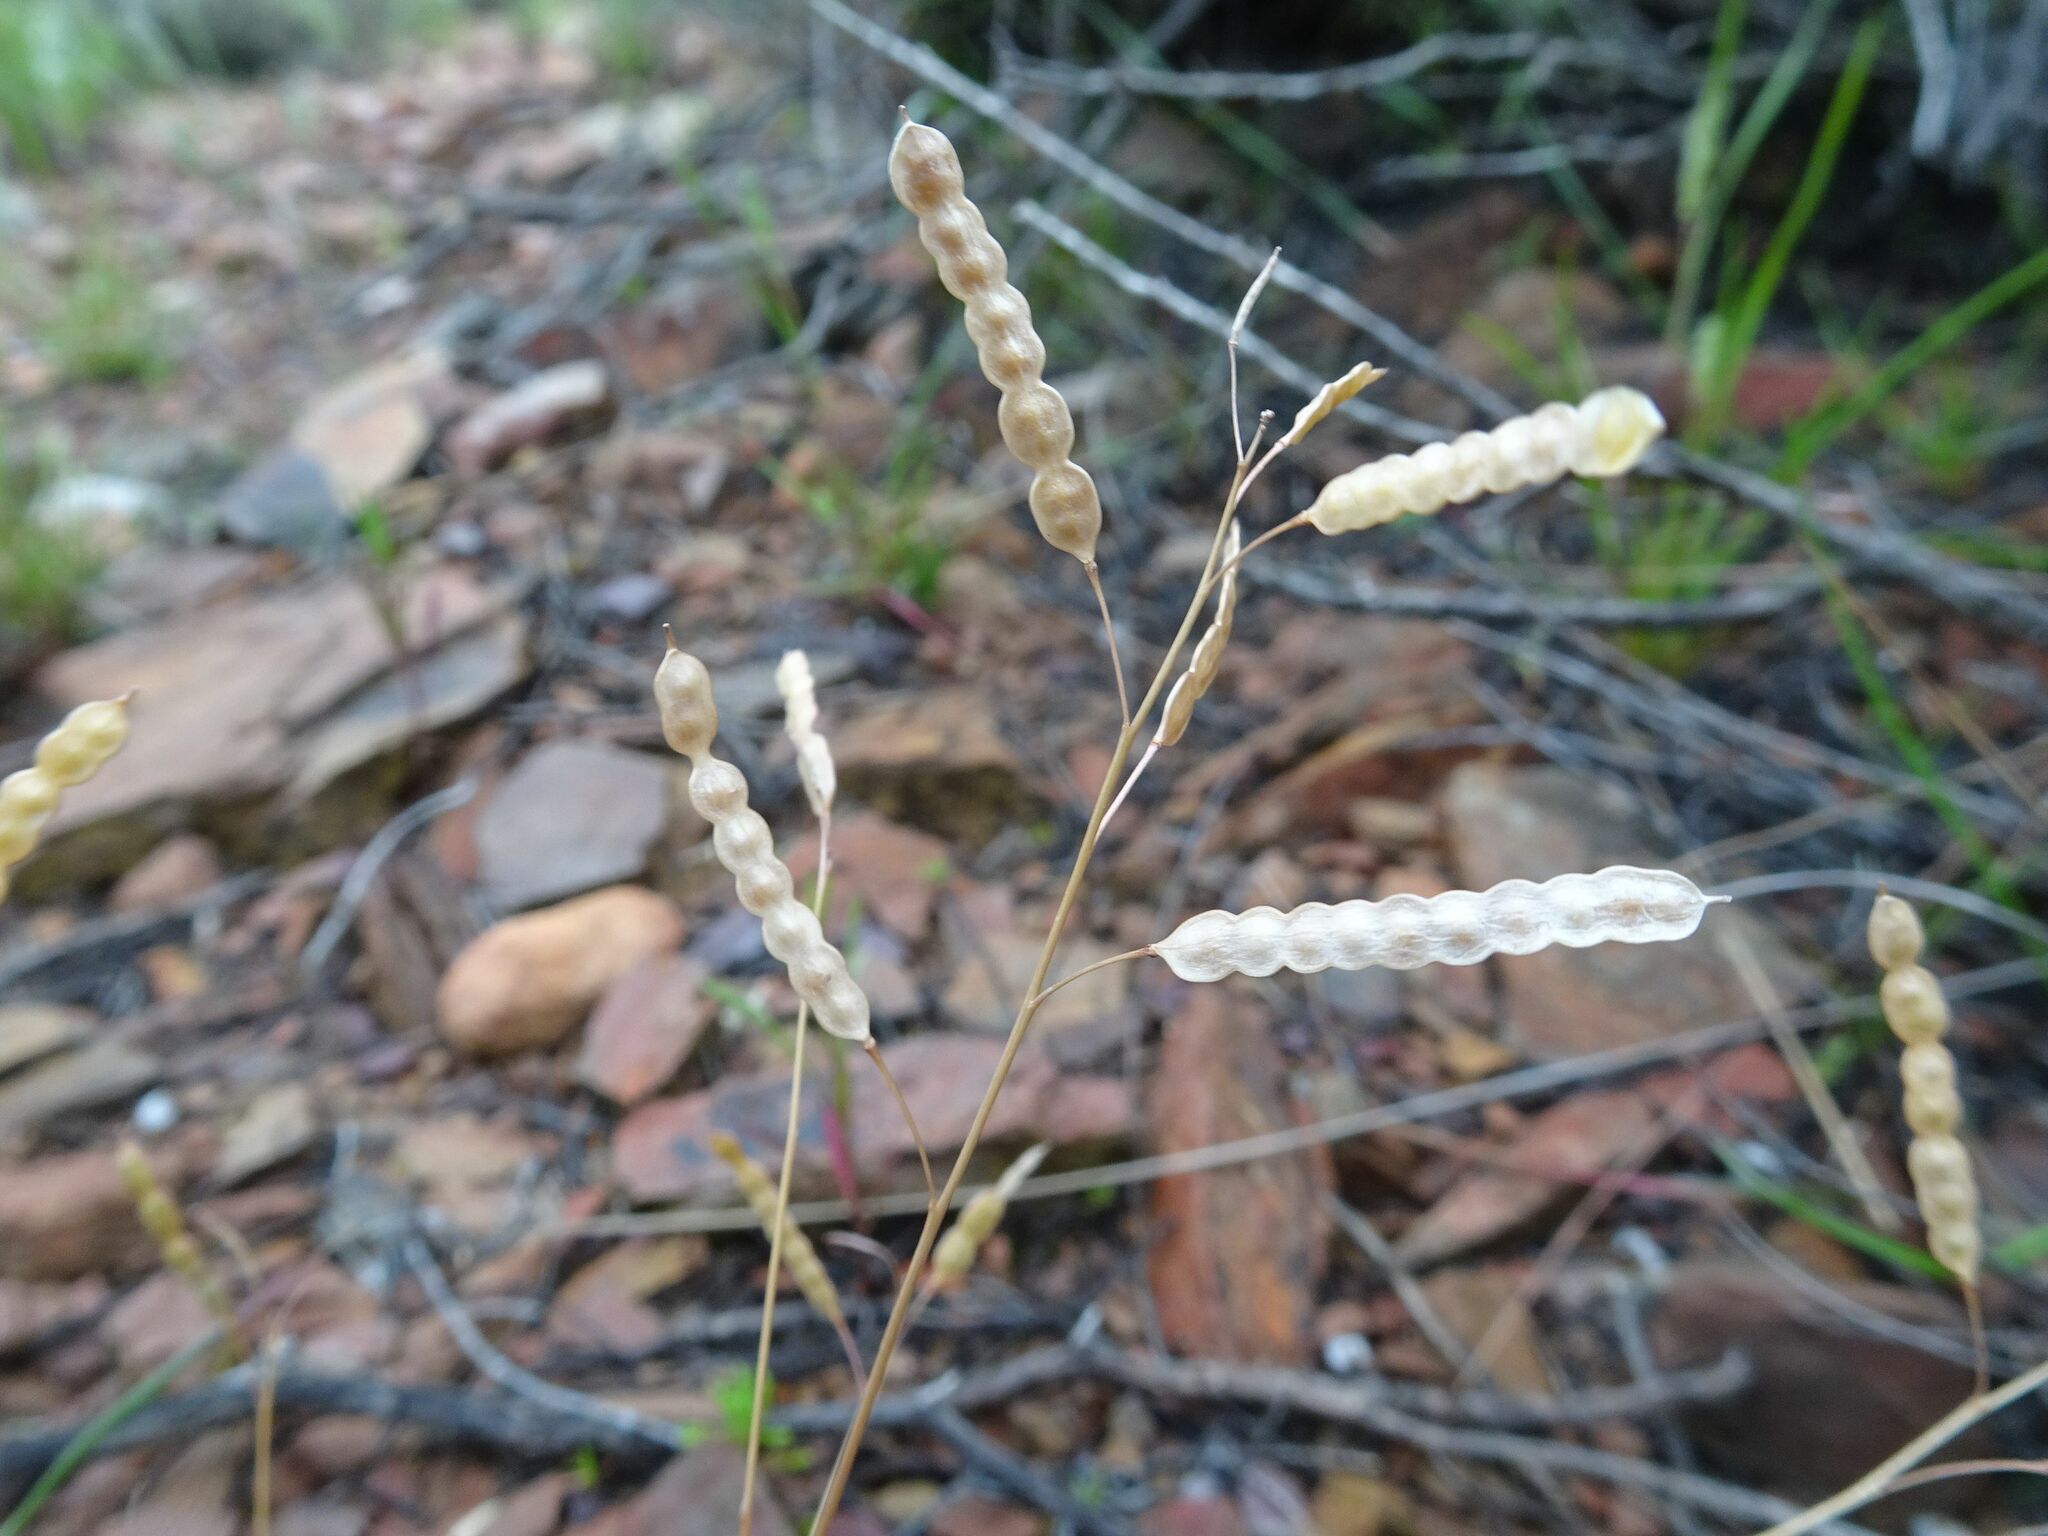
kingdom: Plantae
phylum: Tracheophyta
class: Magnoliopsida
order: Brassicales
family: Brassicaceae
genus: Heliophila
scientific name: Heliophila pendula
